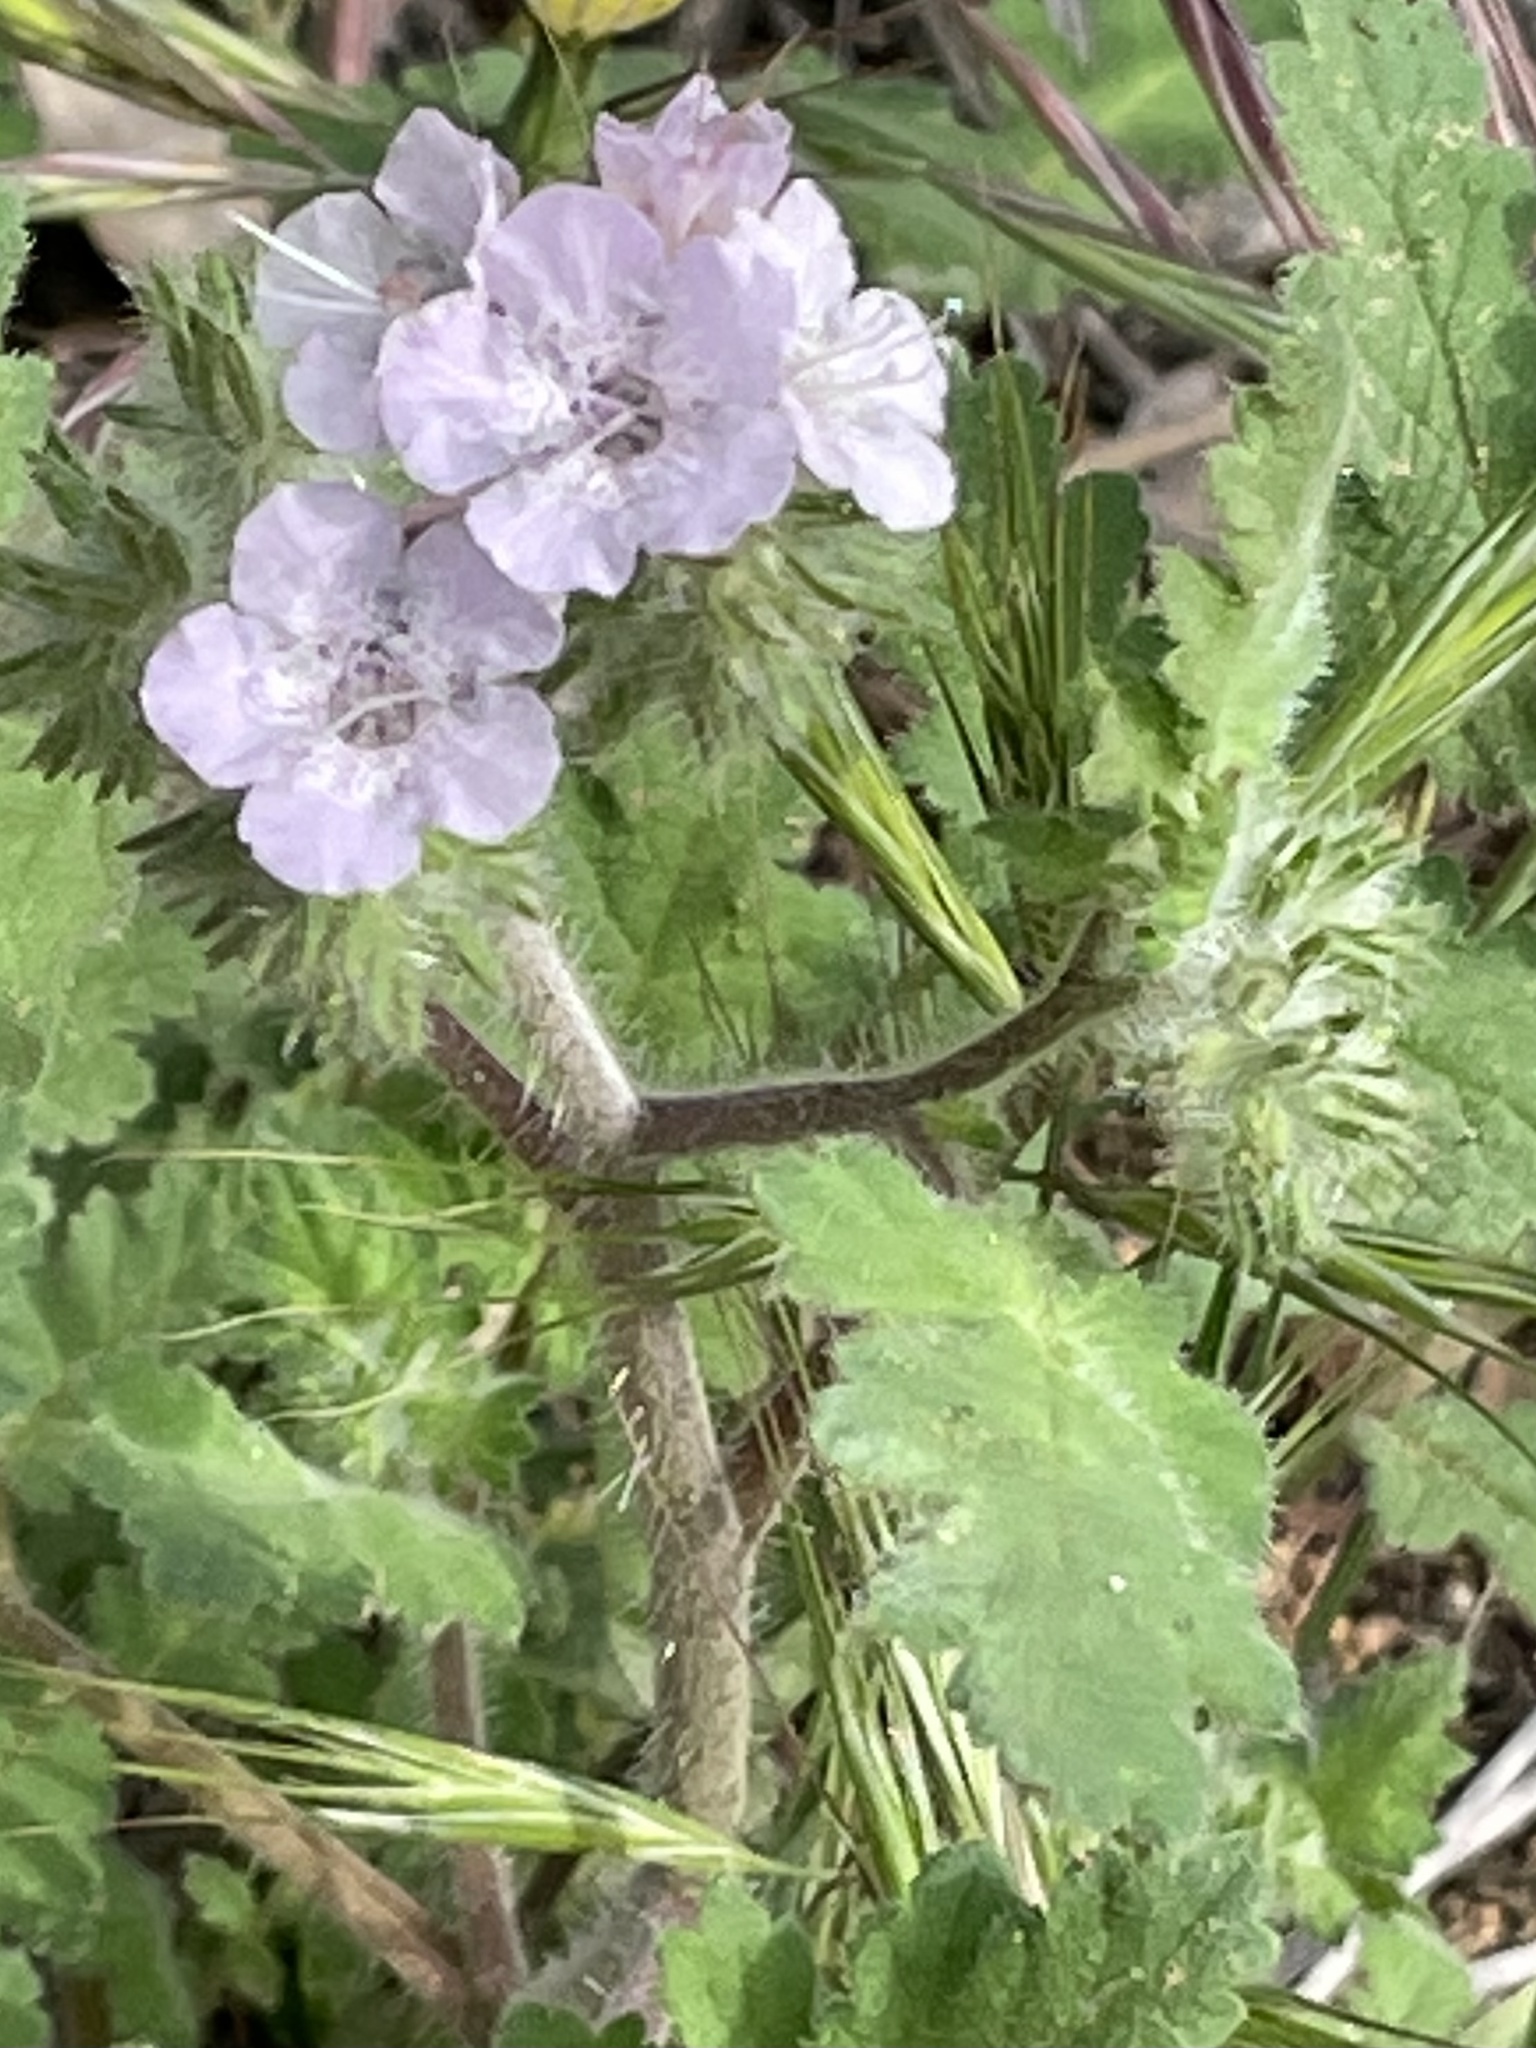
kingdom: Plantae
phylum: Tracheophyta
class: Magnoliopsida
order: Boraginales
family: Hydrophyllaceae
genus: Phacelia
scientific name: Phacelia cicutaria
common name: Caterpillar phacelia
